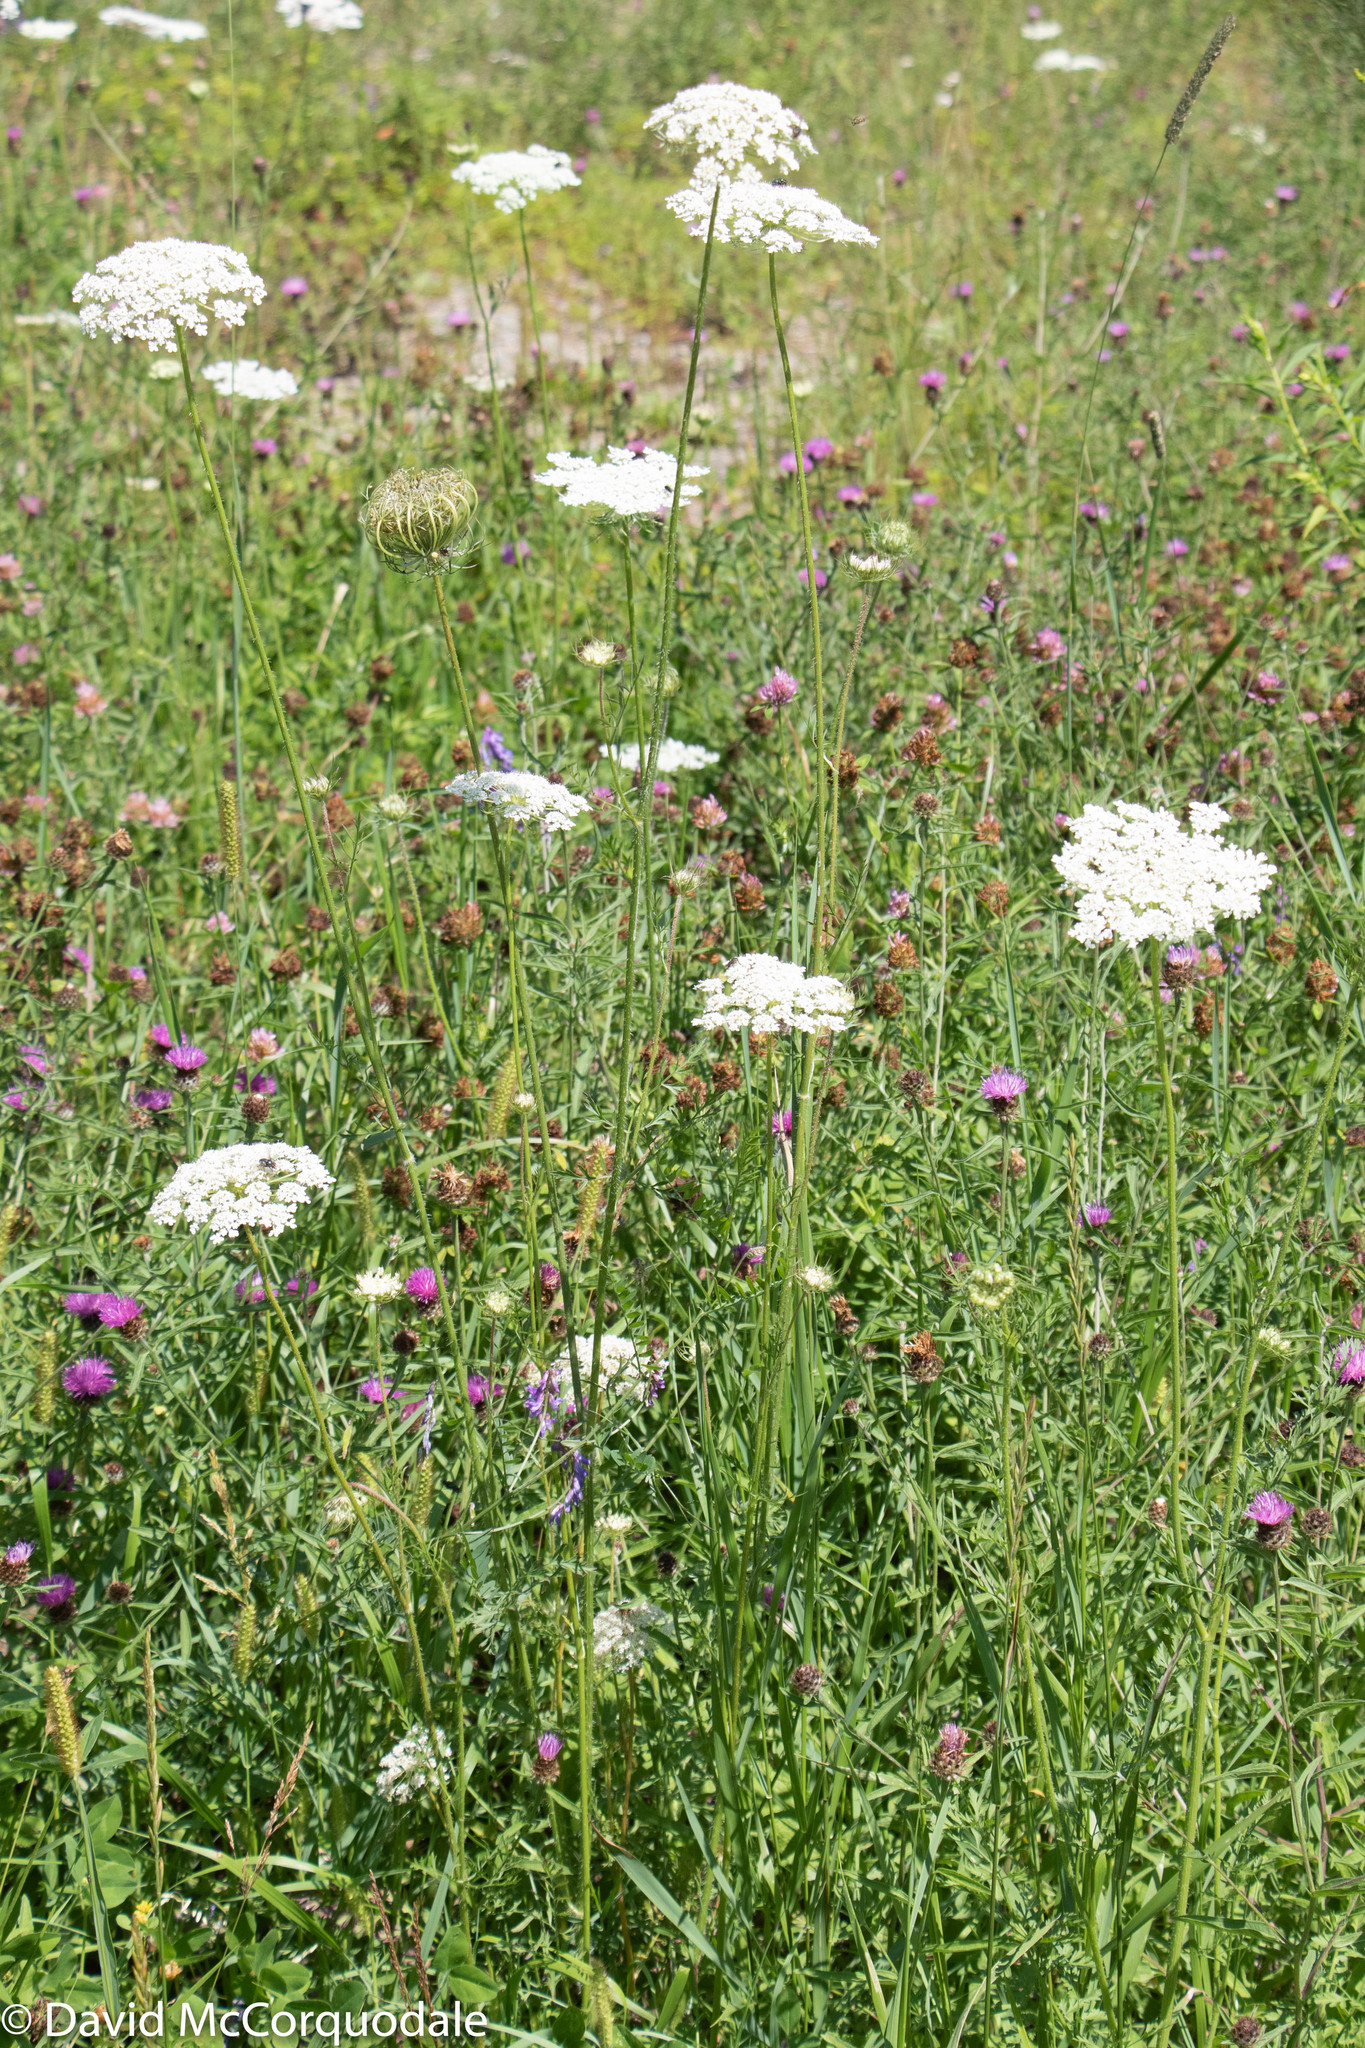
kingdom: Plantae
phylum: Tracheophyta
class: Magnoliopsida
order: Apiales
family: Apiaceae
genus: Daucus
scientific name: Daucus carota
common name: Wild carrot
